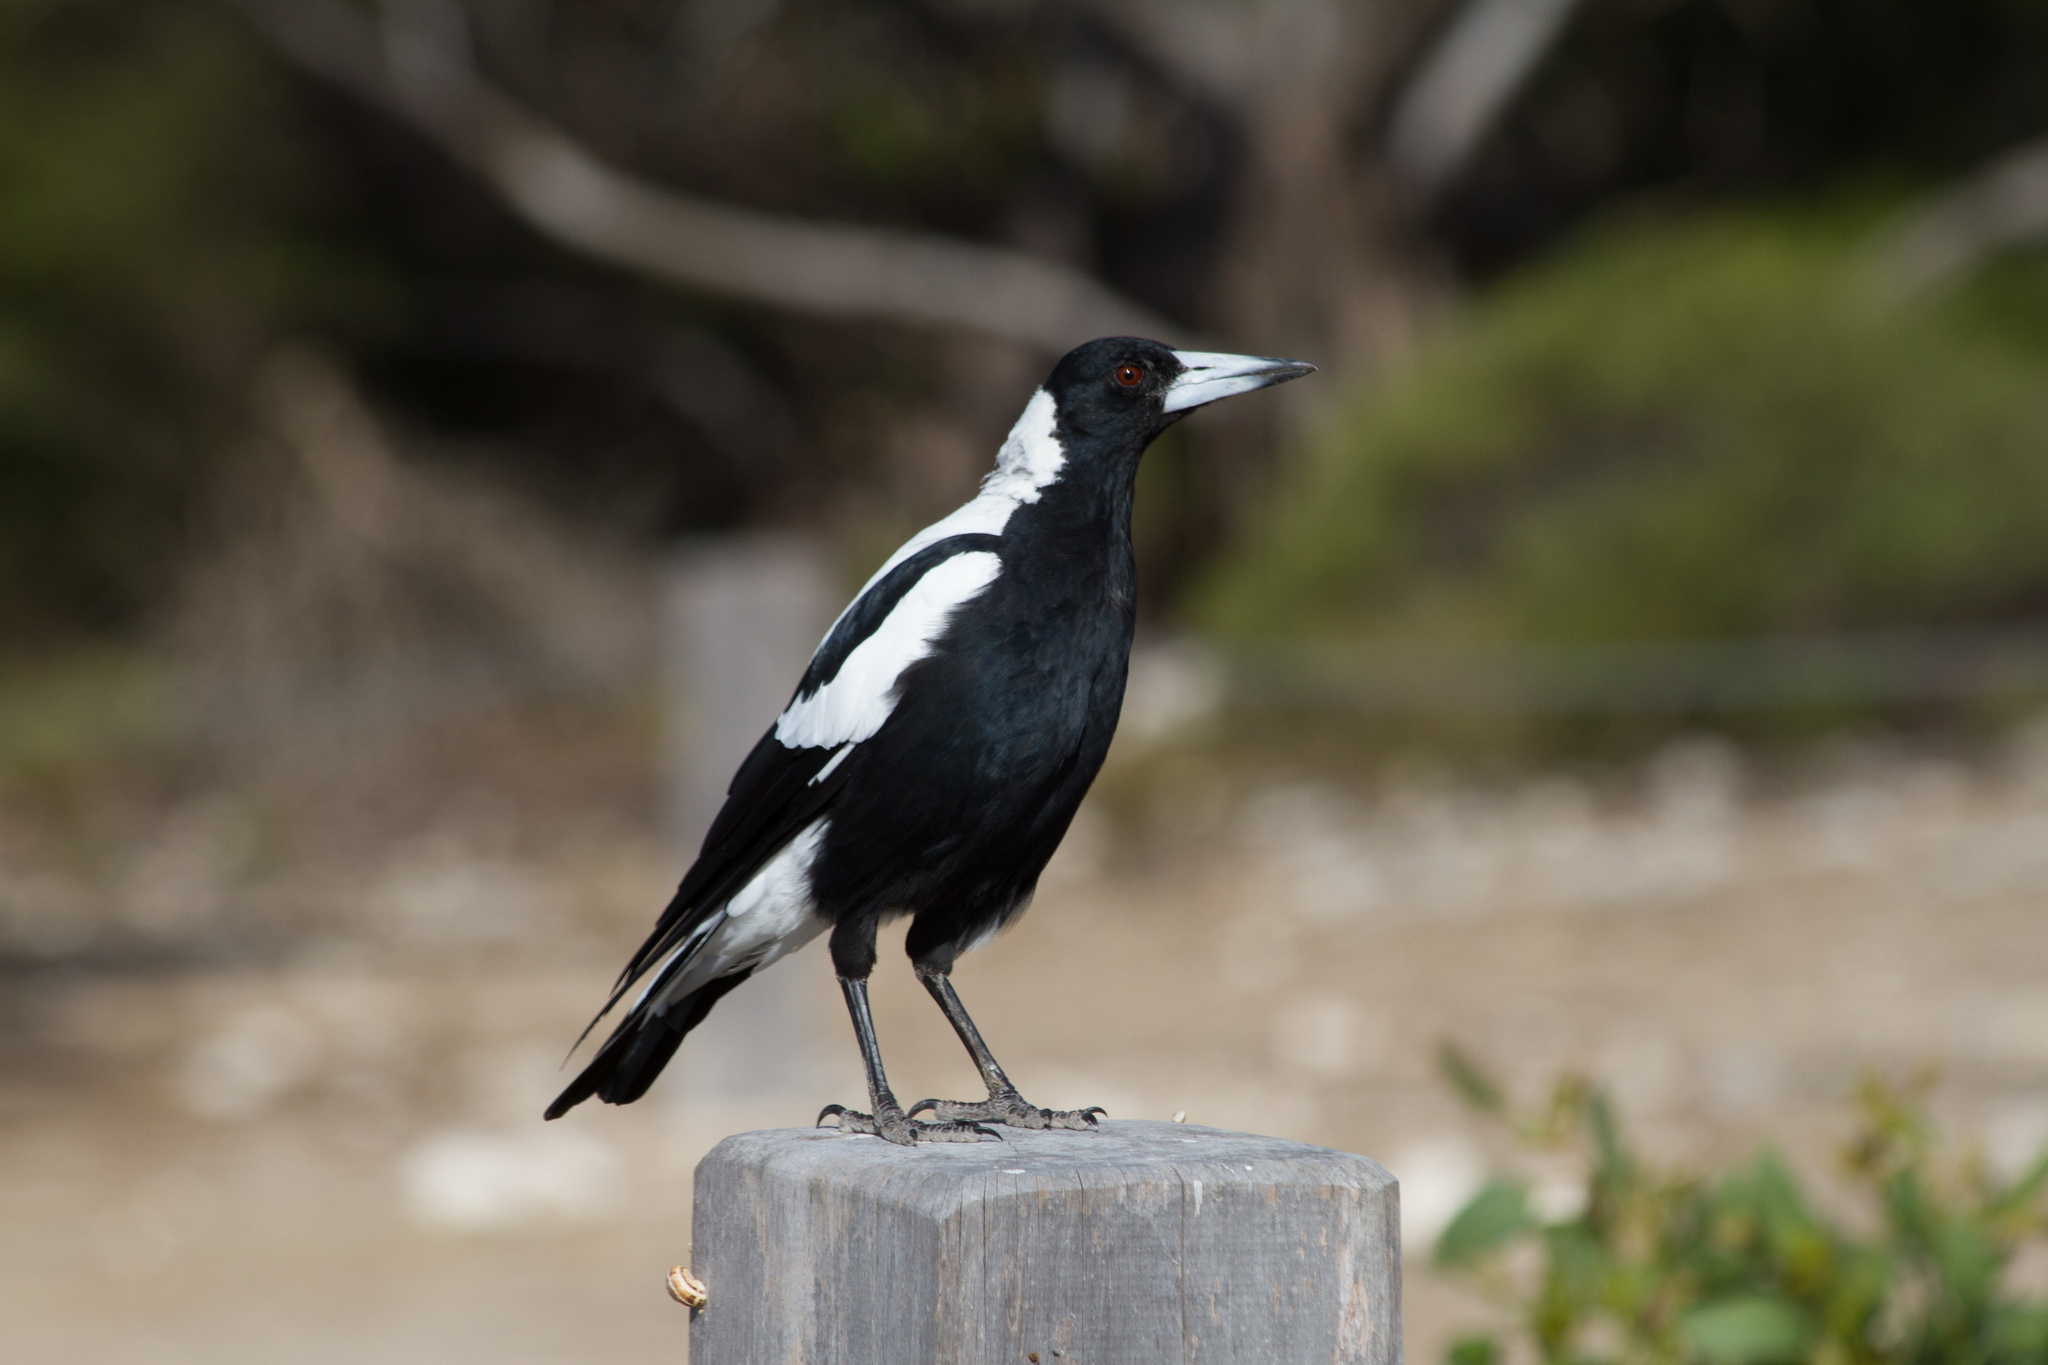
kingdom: Animalia
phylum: Chordata
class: Aves
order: Passeriformes
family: Cracticidae
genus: Gymnorhina
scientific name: Gymnorhina tibicen
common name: Australian magpie
